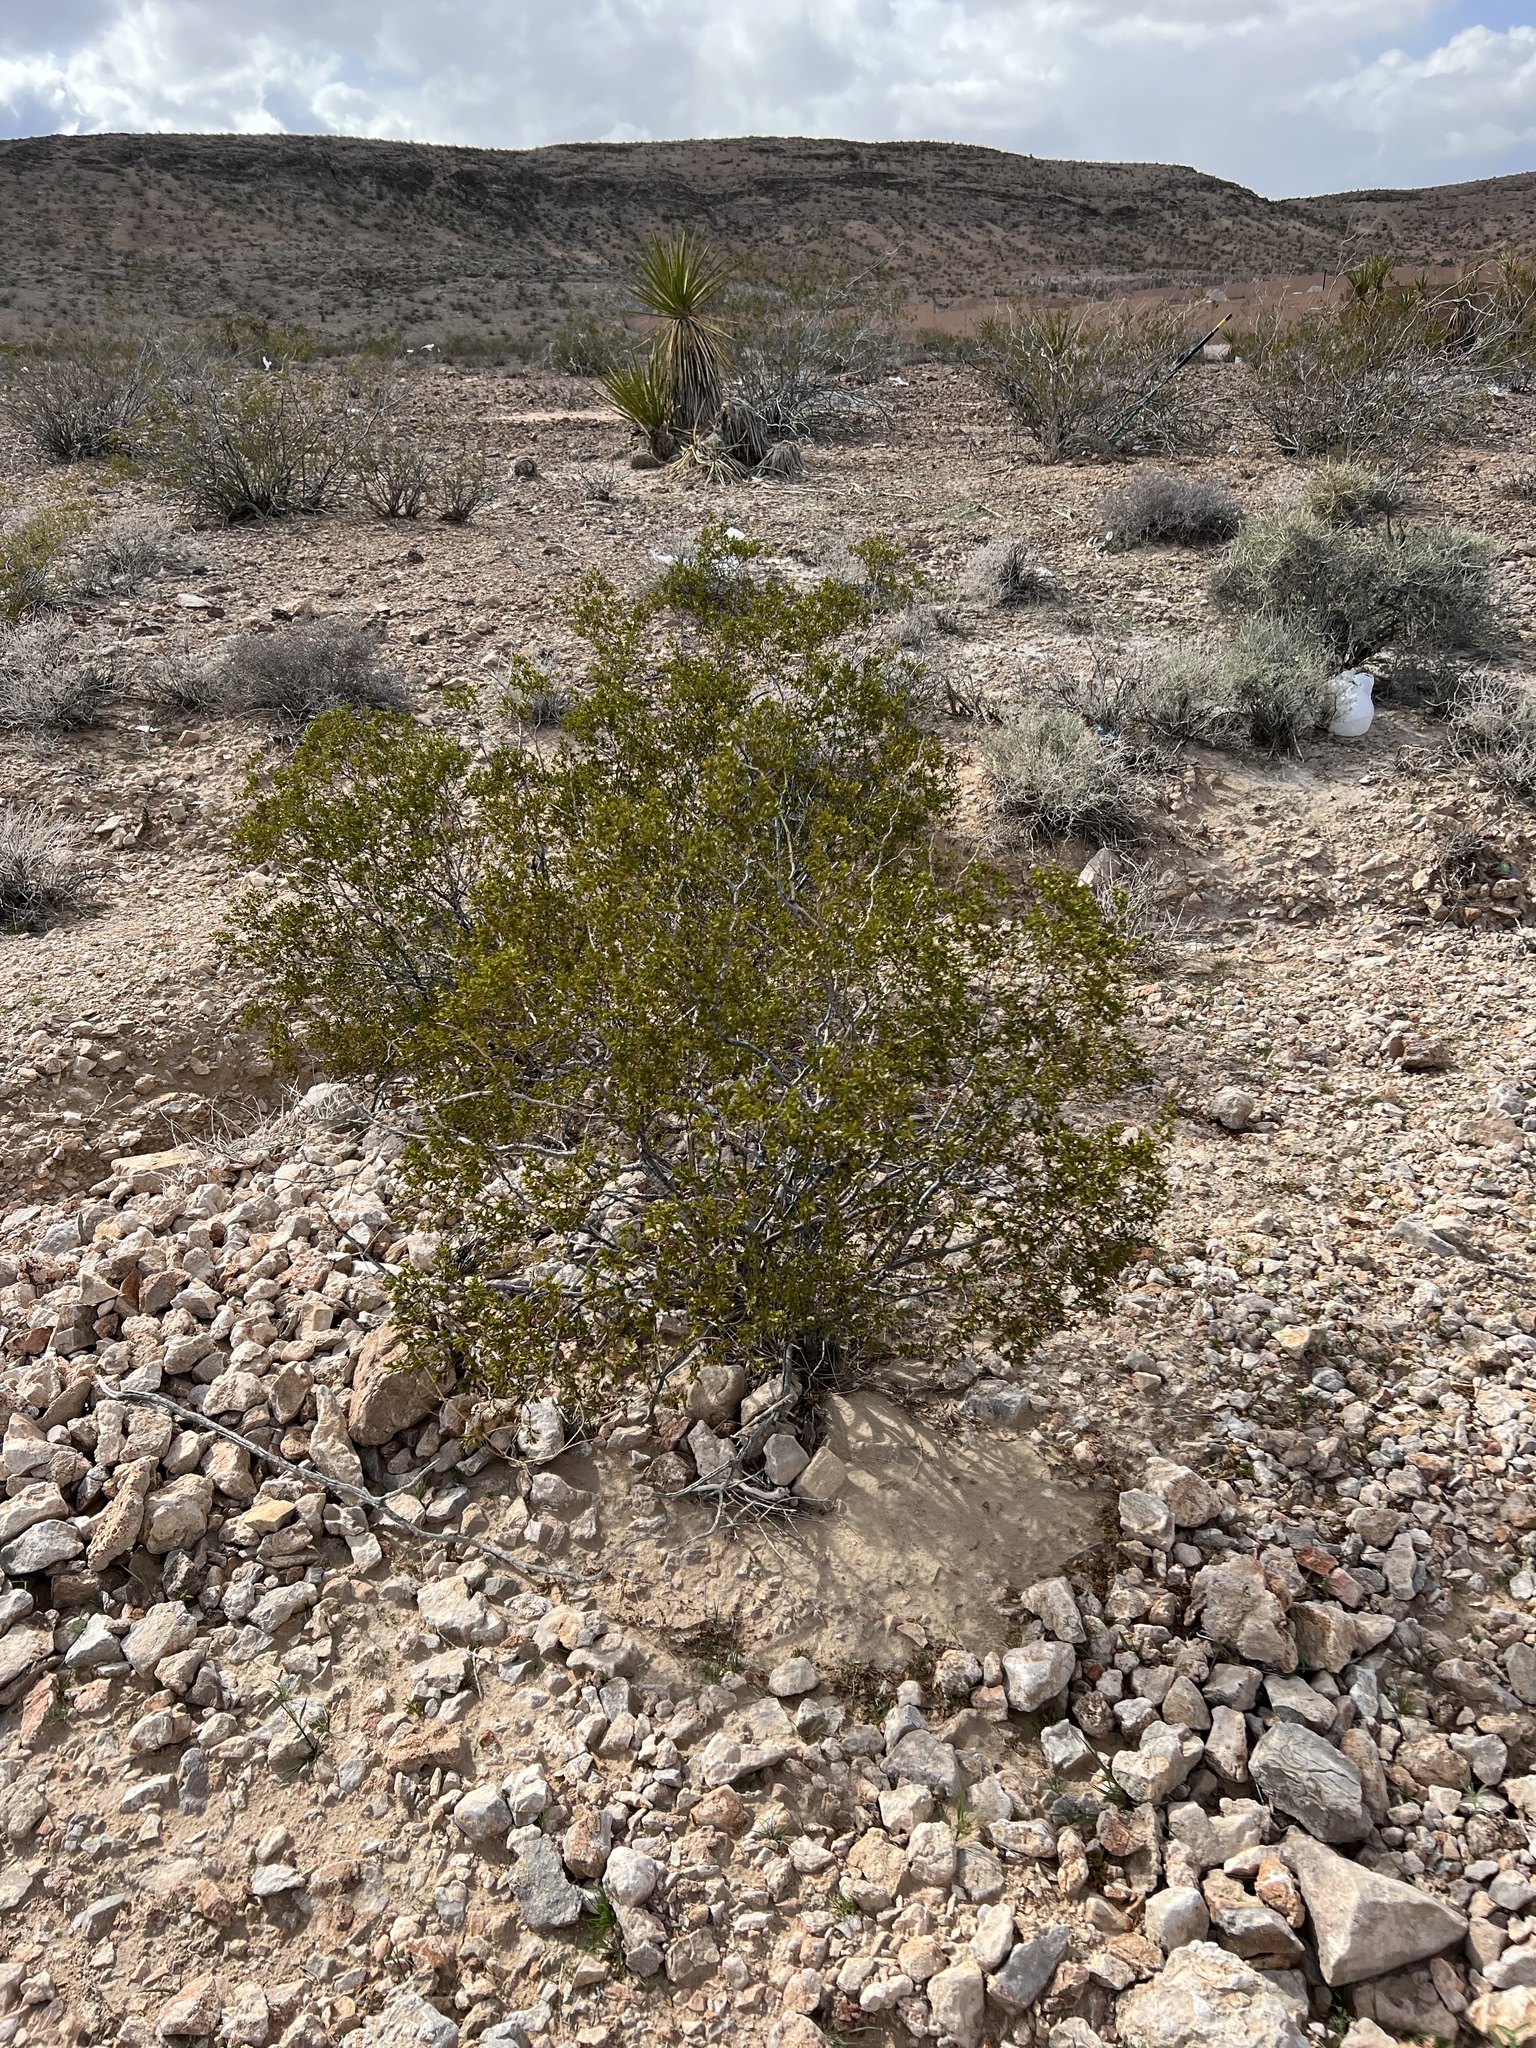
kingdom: Plantae
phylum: Tracheophyta
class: Magnoliopsida
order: Zygophyllales
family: Zygophyllaceae
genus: Larrea
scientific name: Larrea tridentata
